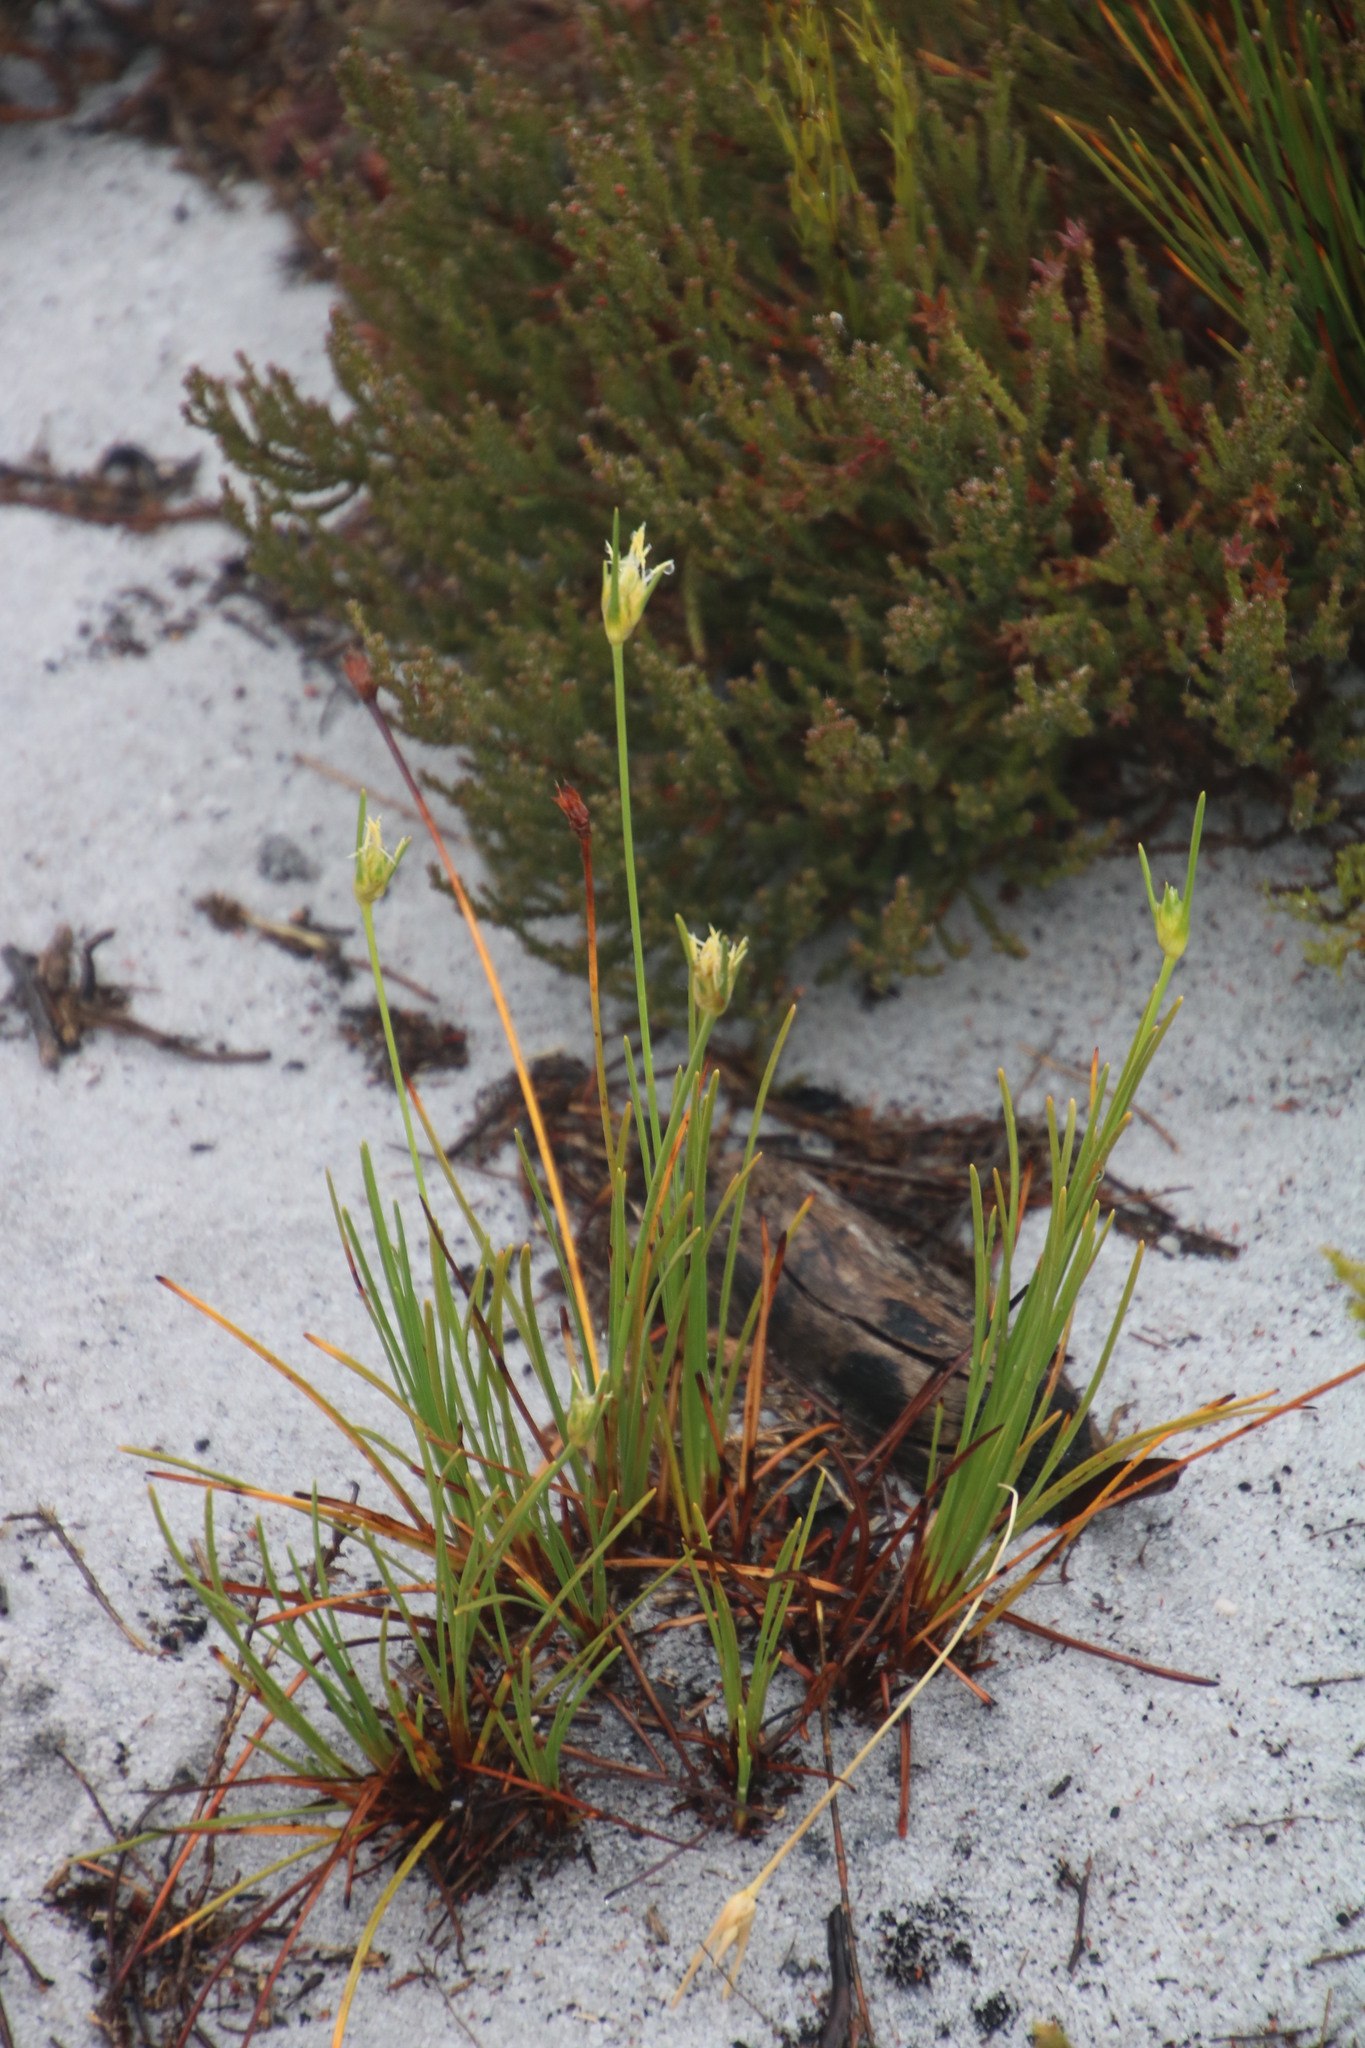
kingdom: Plantae
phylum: Tracheophyta
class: Liliopsida
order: Poales
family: Cyperaceae
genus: Ficinia
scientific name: Ficinia pallens
